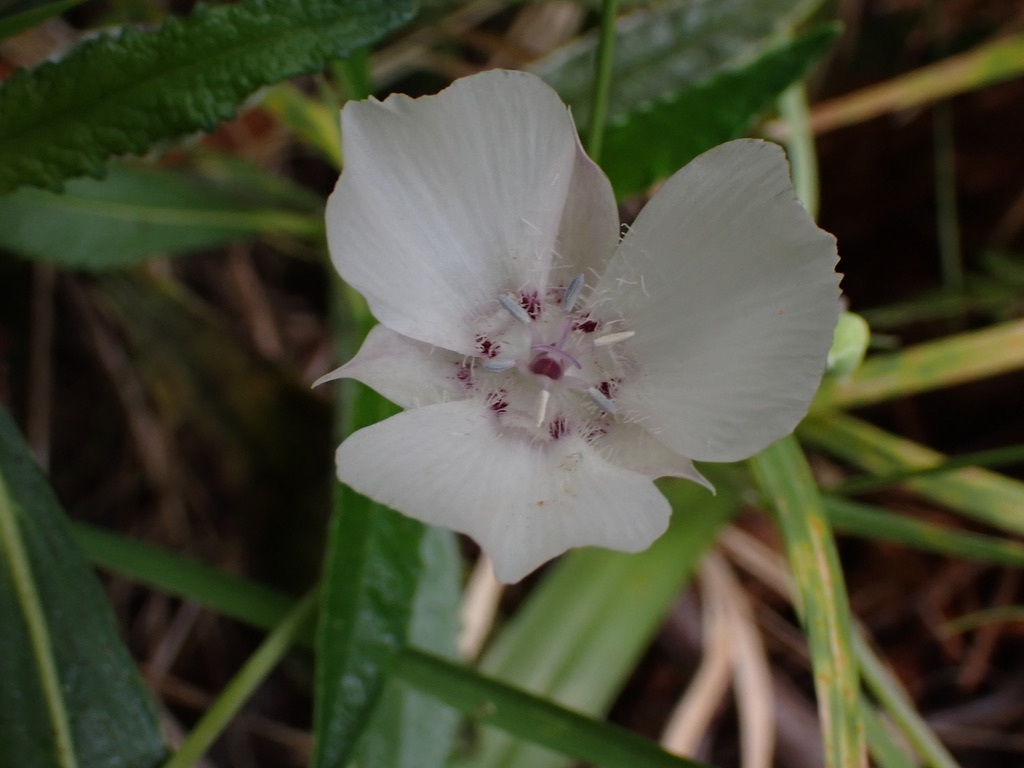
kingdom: Plantae
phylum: Tracheophyta
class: Liliopsida
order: Liliales
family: Liliaceae
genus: Calochortus
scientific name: Calochortus umbellatus
